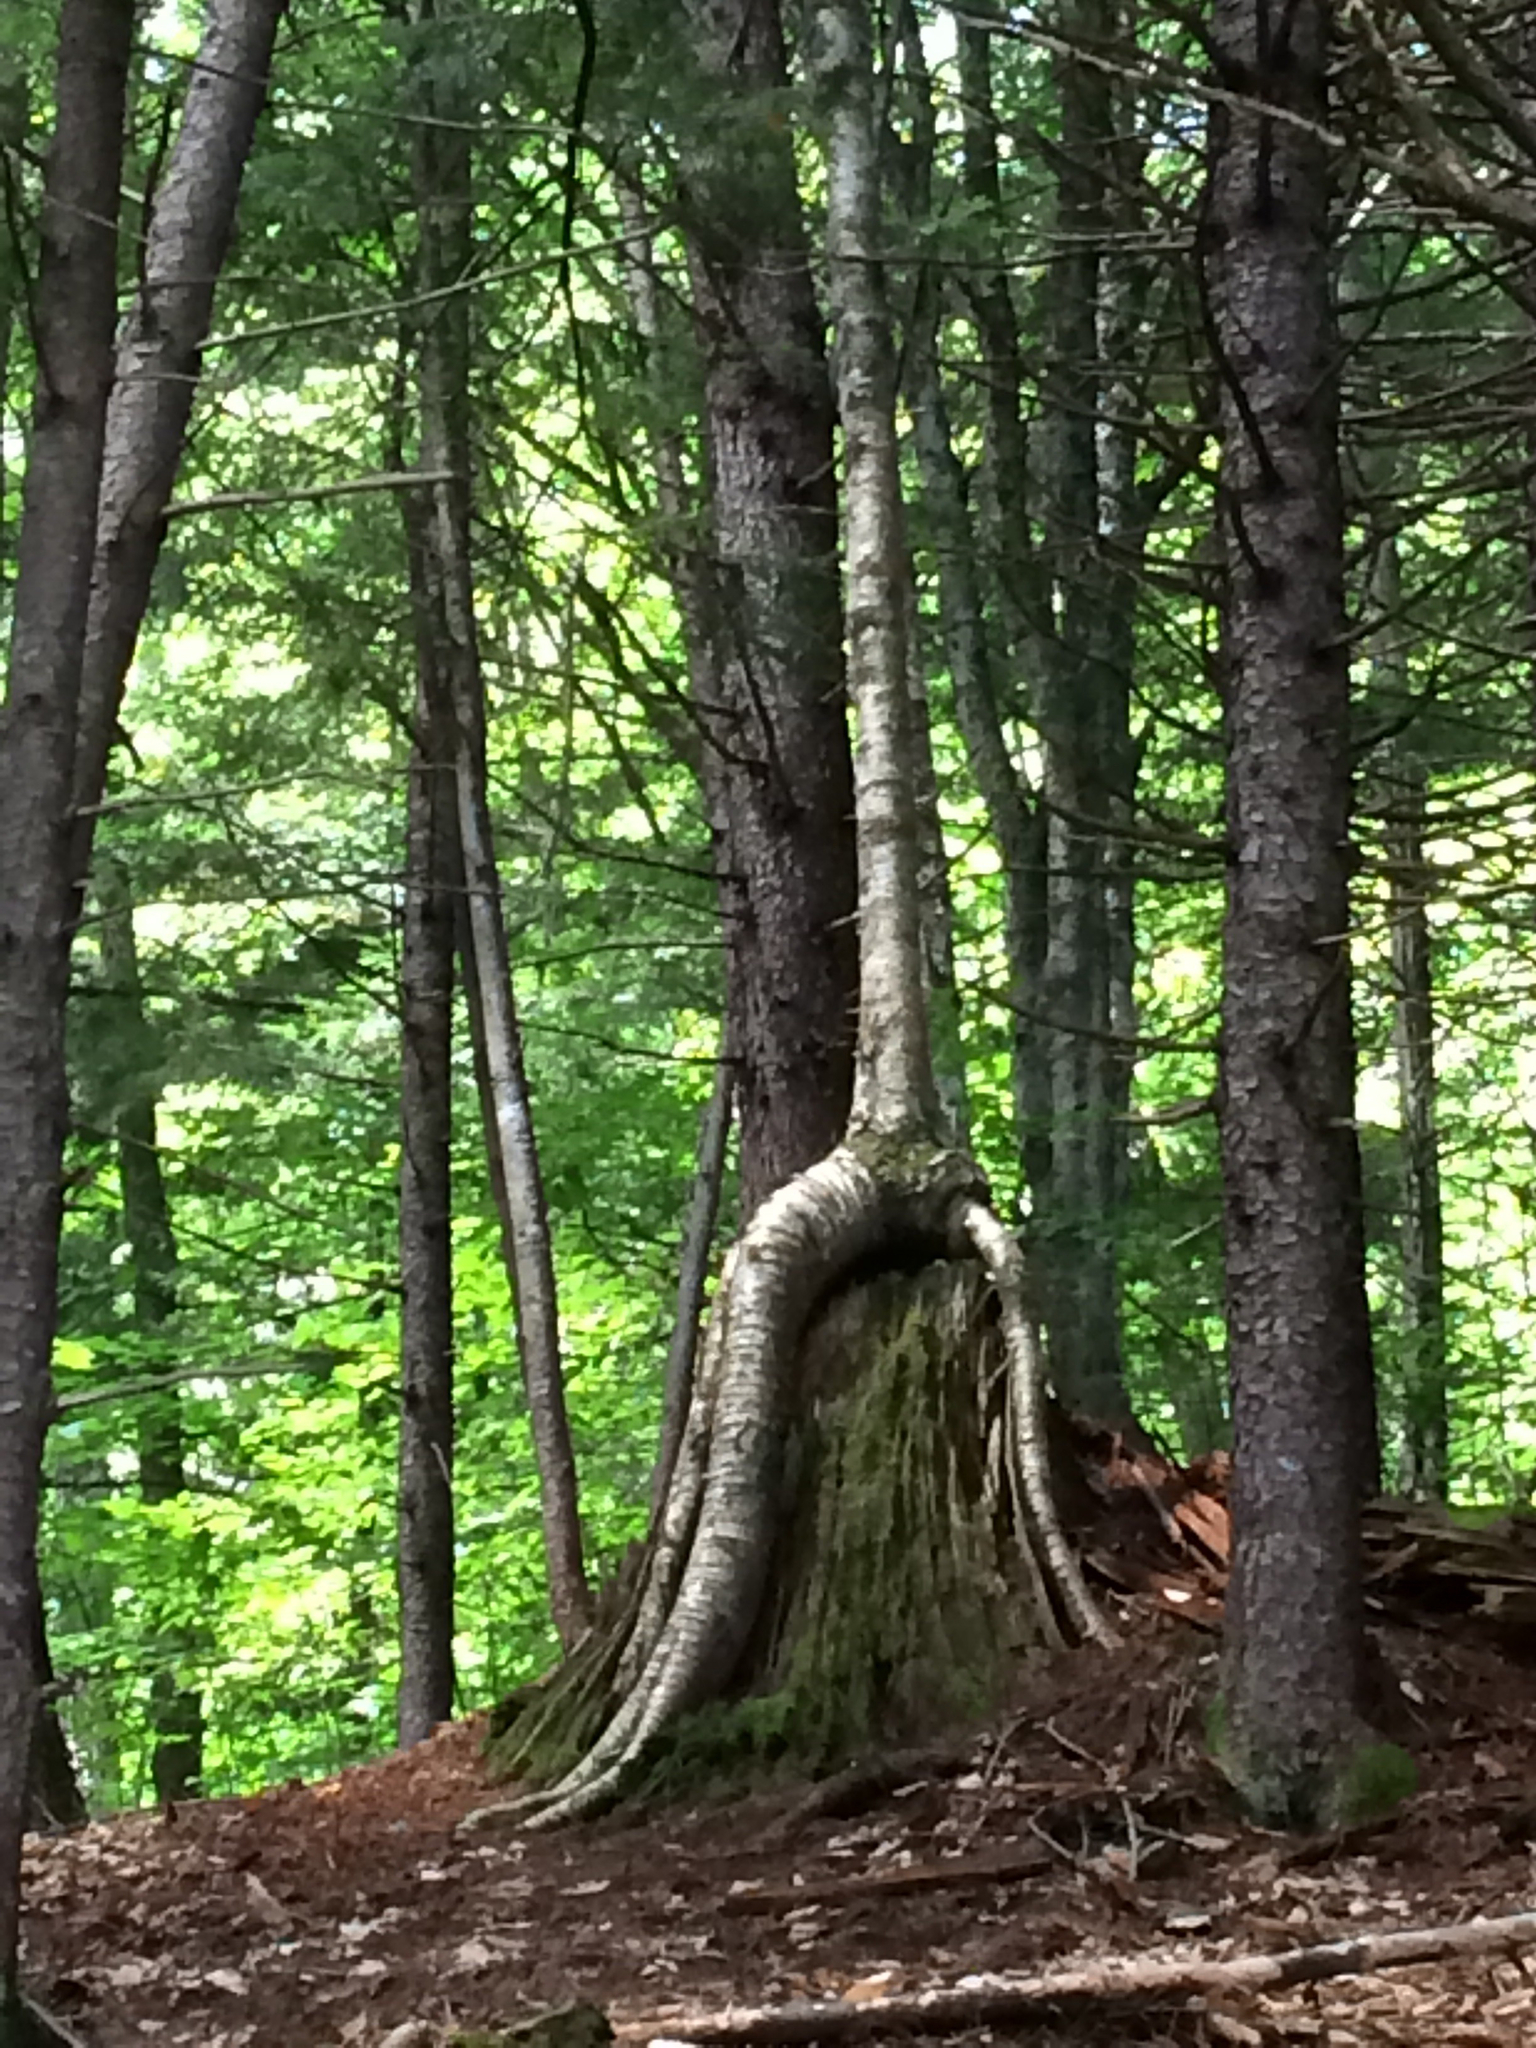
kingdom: Plantae
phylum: Tracheophyta
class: Magnoliopsida
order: Fagales
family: Betulaceae
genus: Betula
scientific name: Betula alleghaniensis
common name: Yellow birch
